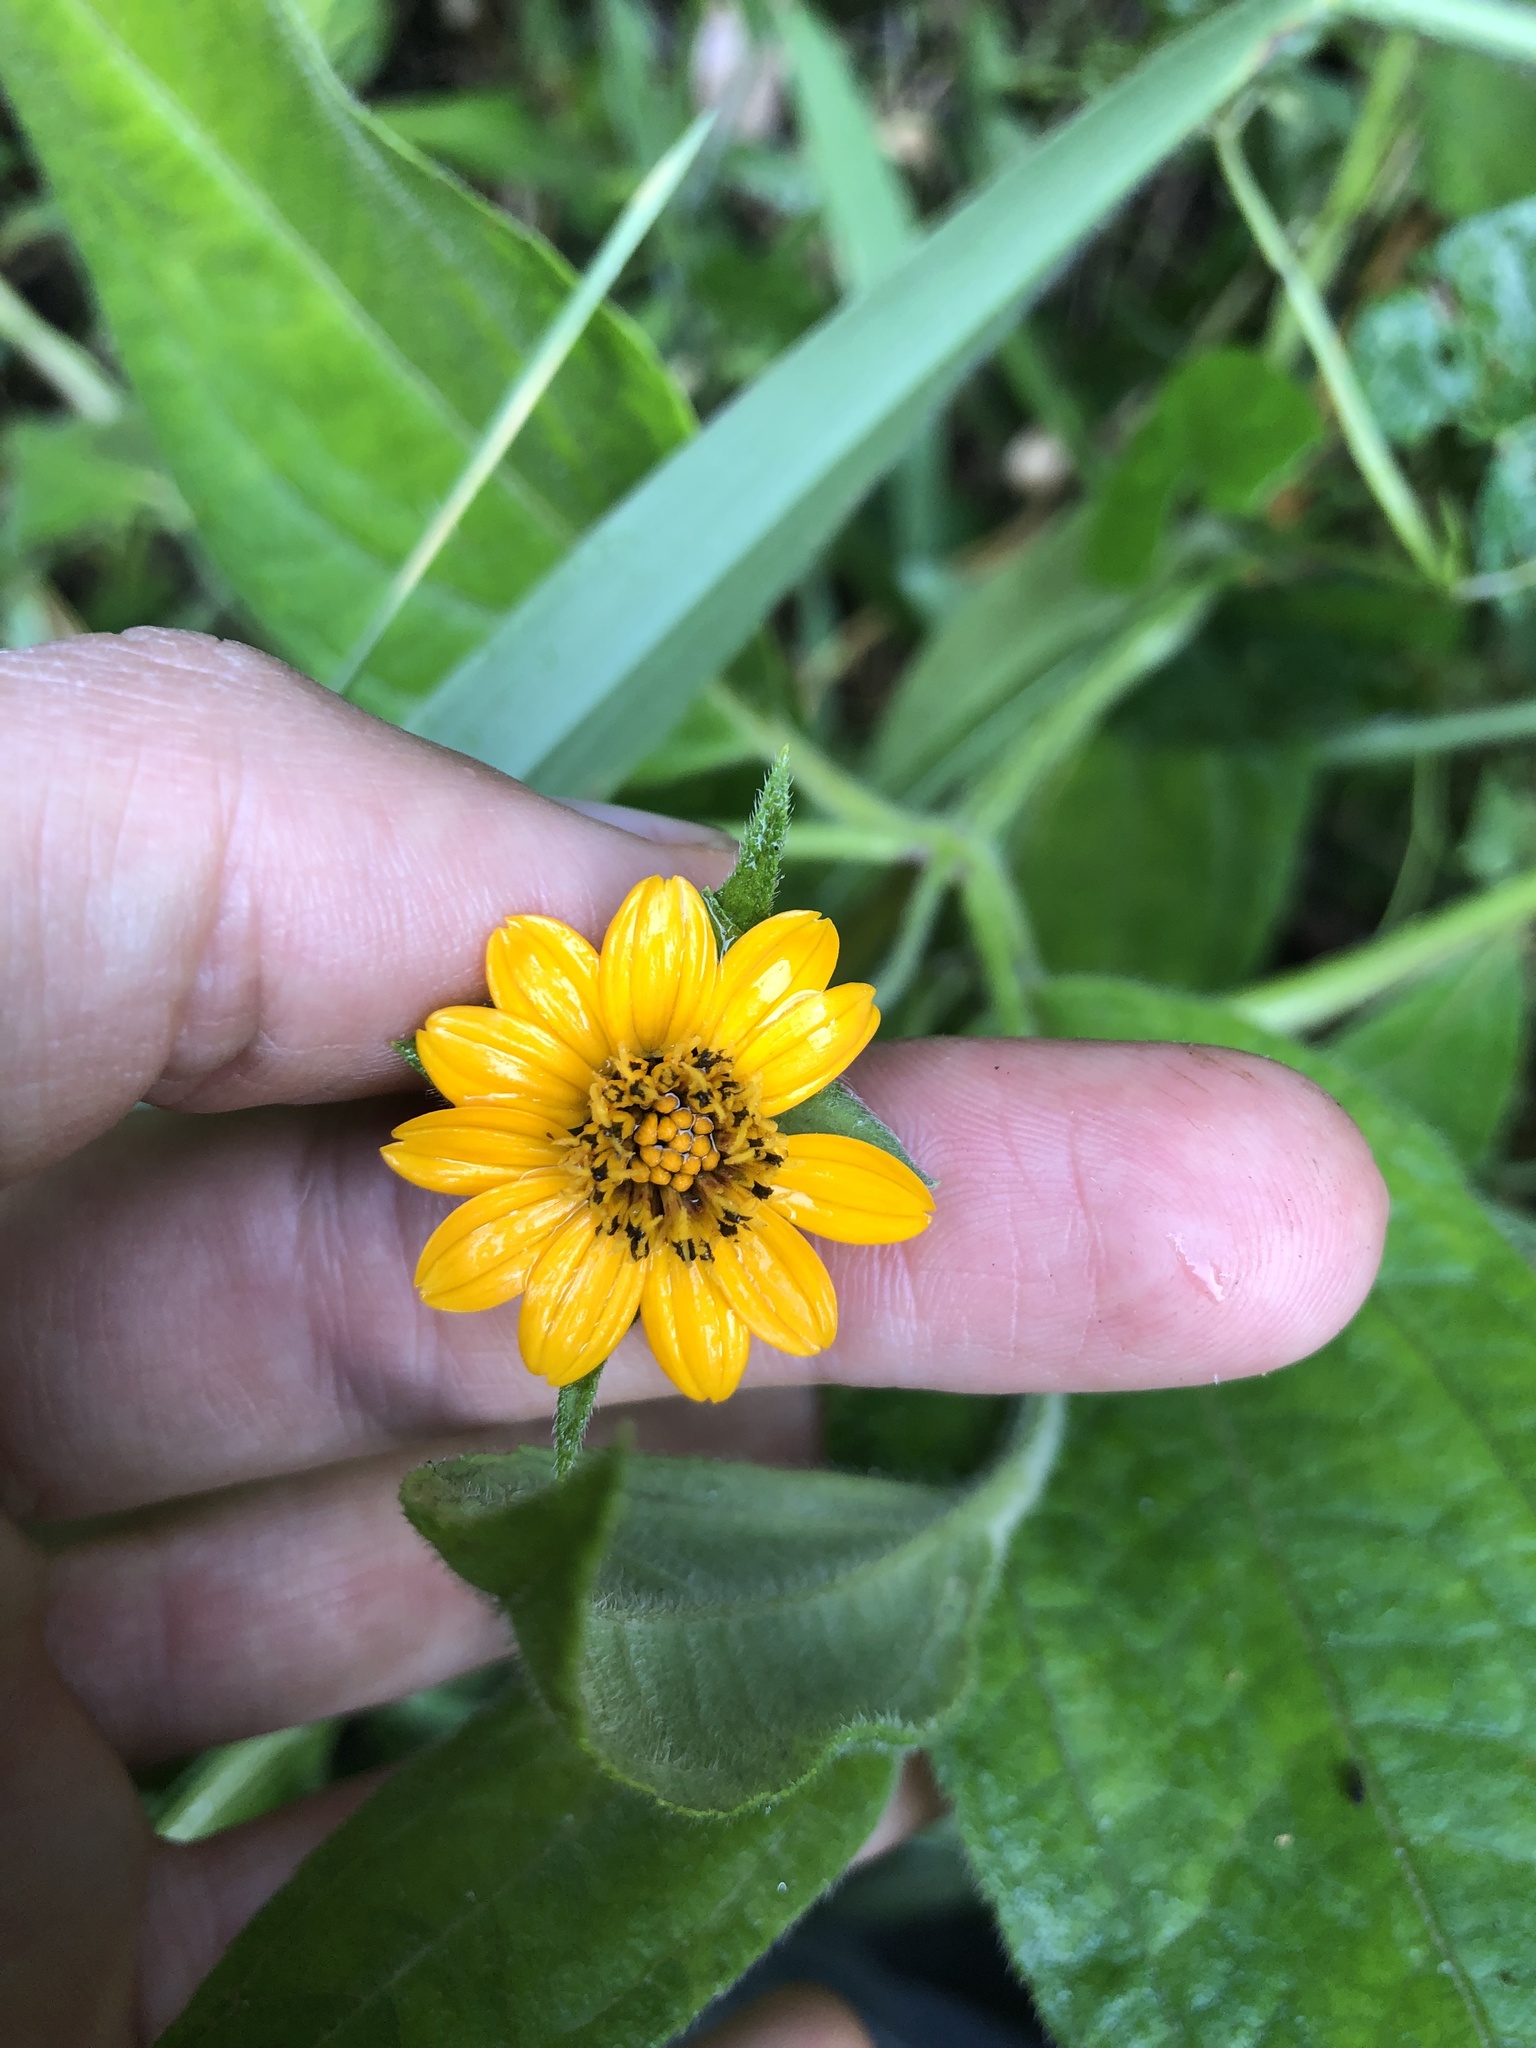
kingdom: Plantae
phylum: Tracheophyta
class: Magnoliopsida
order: Asterales
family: Asteraceae
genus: Elaphandra
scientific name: Elaphandra quinquenervis
